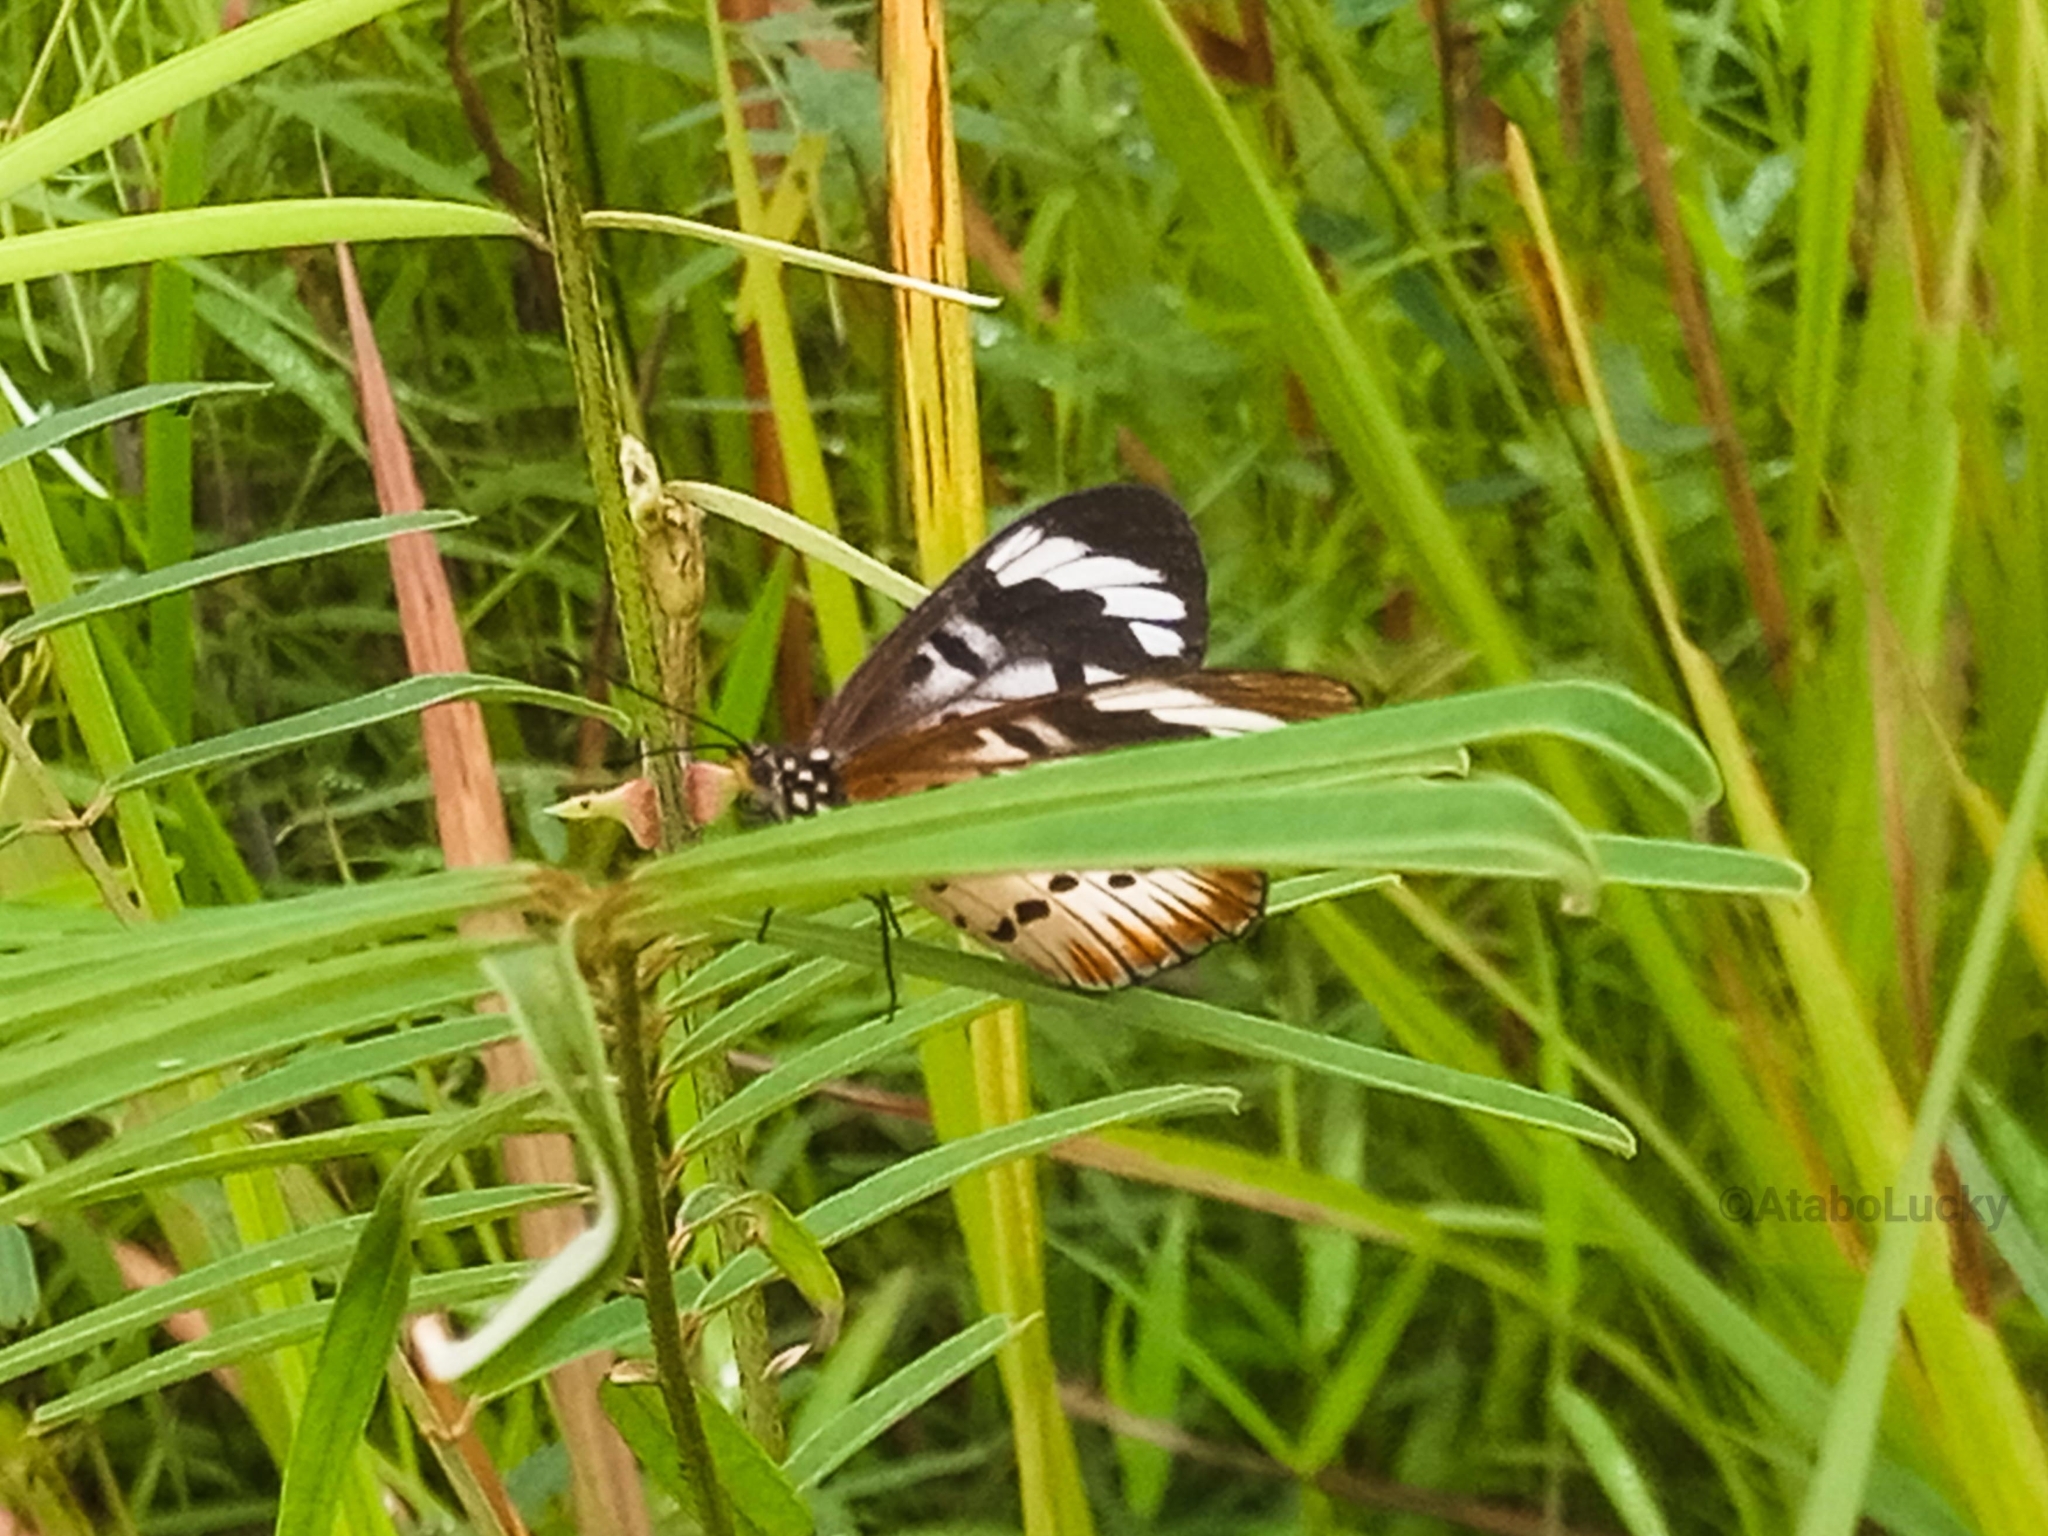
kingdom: Animalia
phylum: Arthropoda
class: Insecta
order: Lepidoptera
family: Nymphalidae
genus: Acraea
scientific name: Acraea Telchinia encedon
